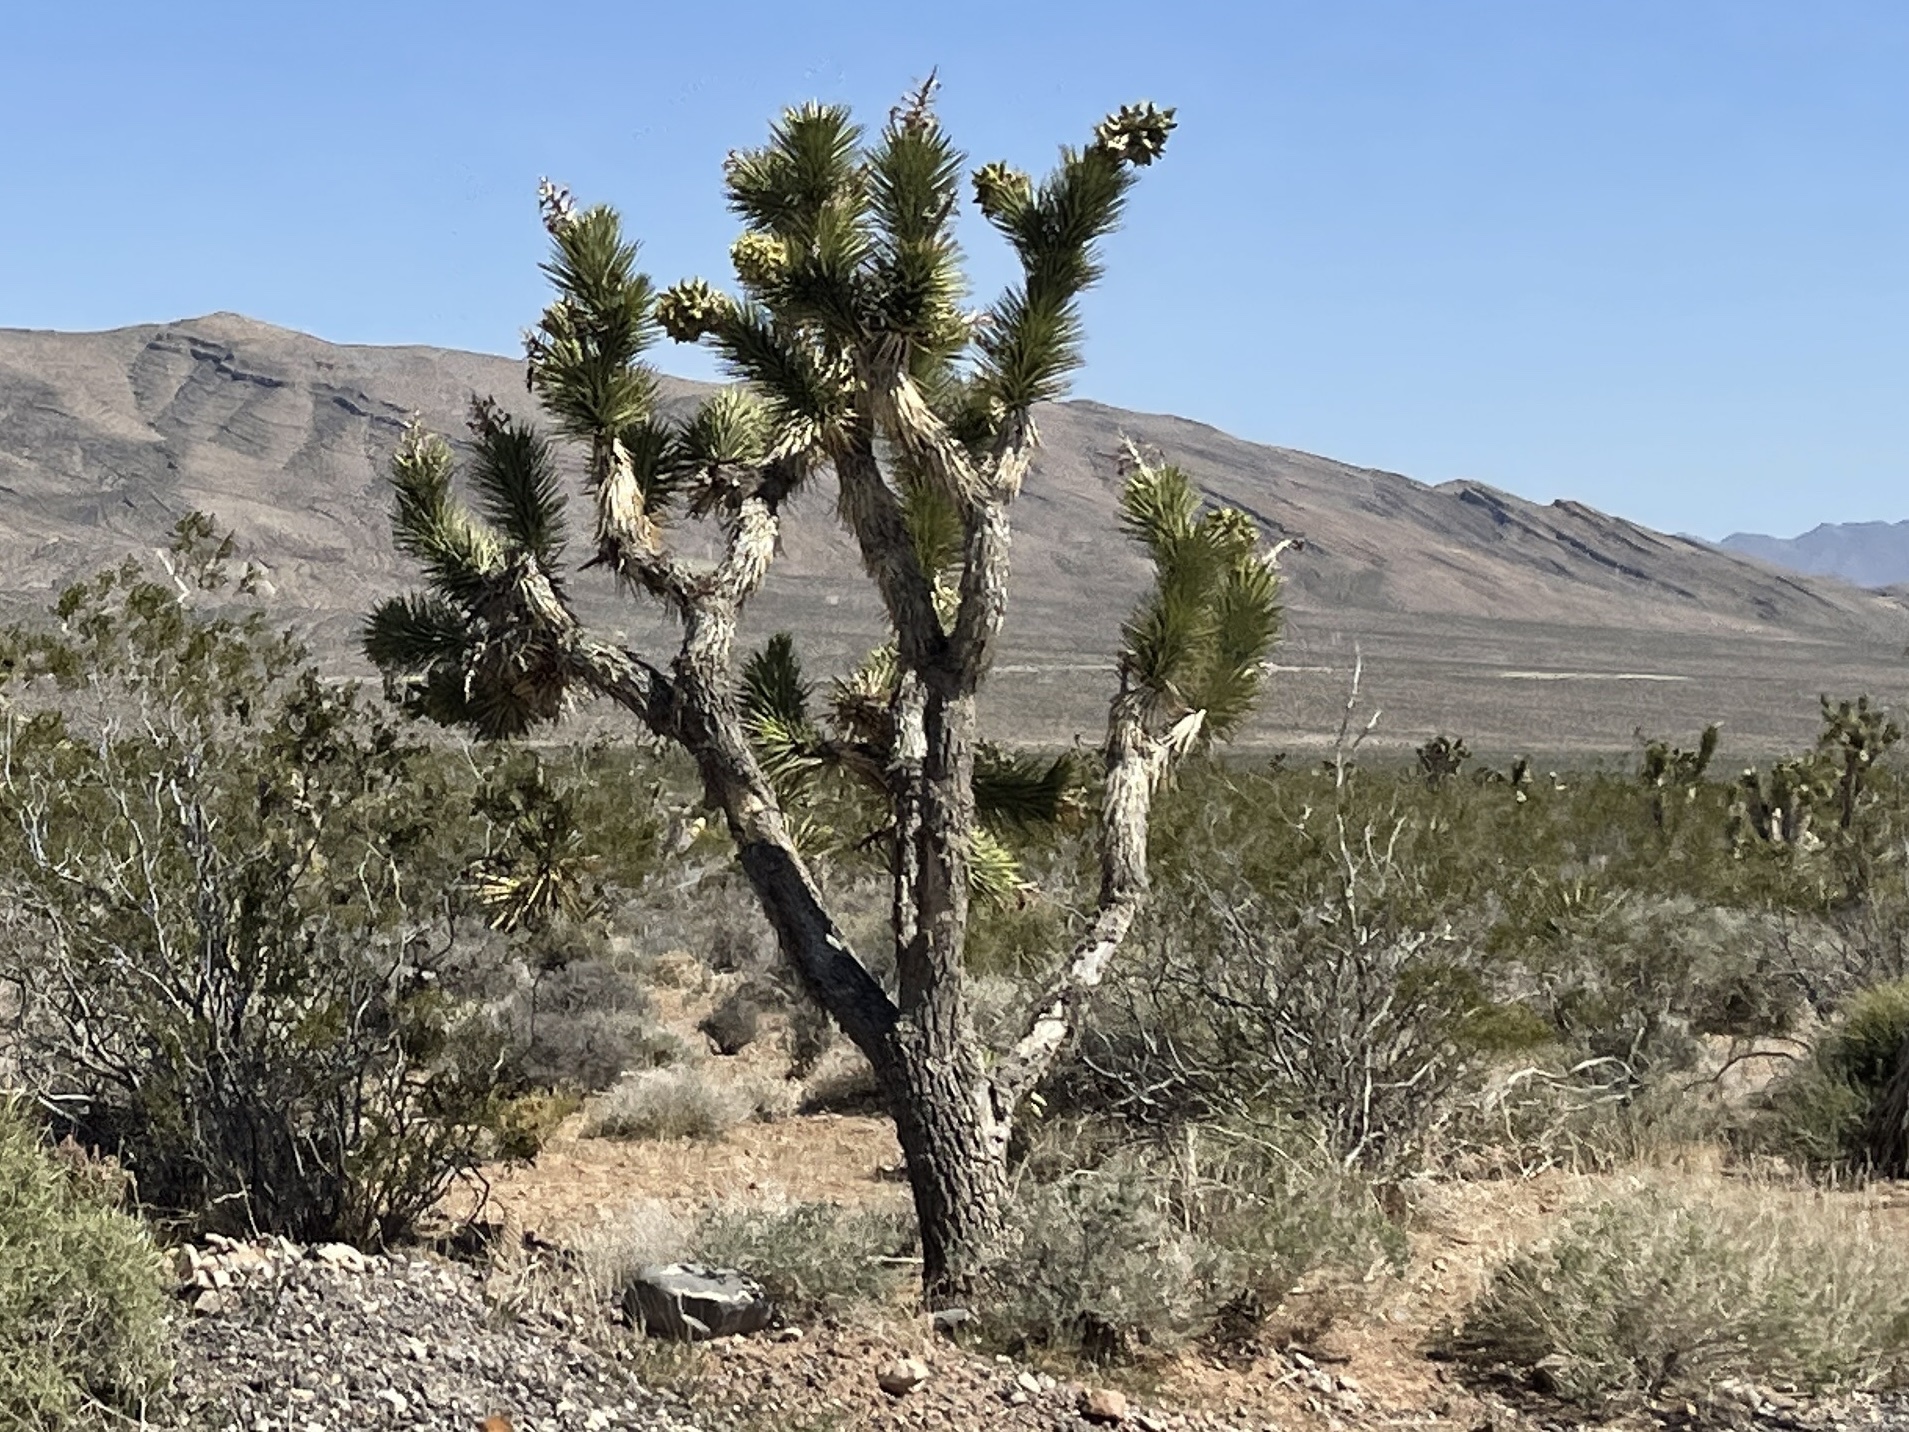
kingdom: Plantae
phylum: Tracheophyta
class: Liliopsida
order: Asparagales
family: Asparagaceae
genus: Yucca
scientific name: Yucca brevifolia
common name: Joshua tree
